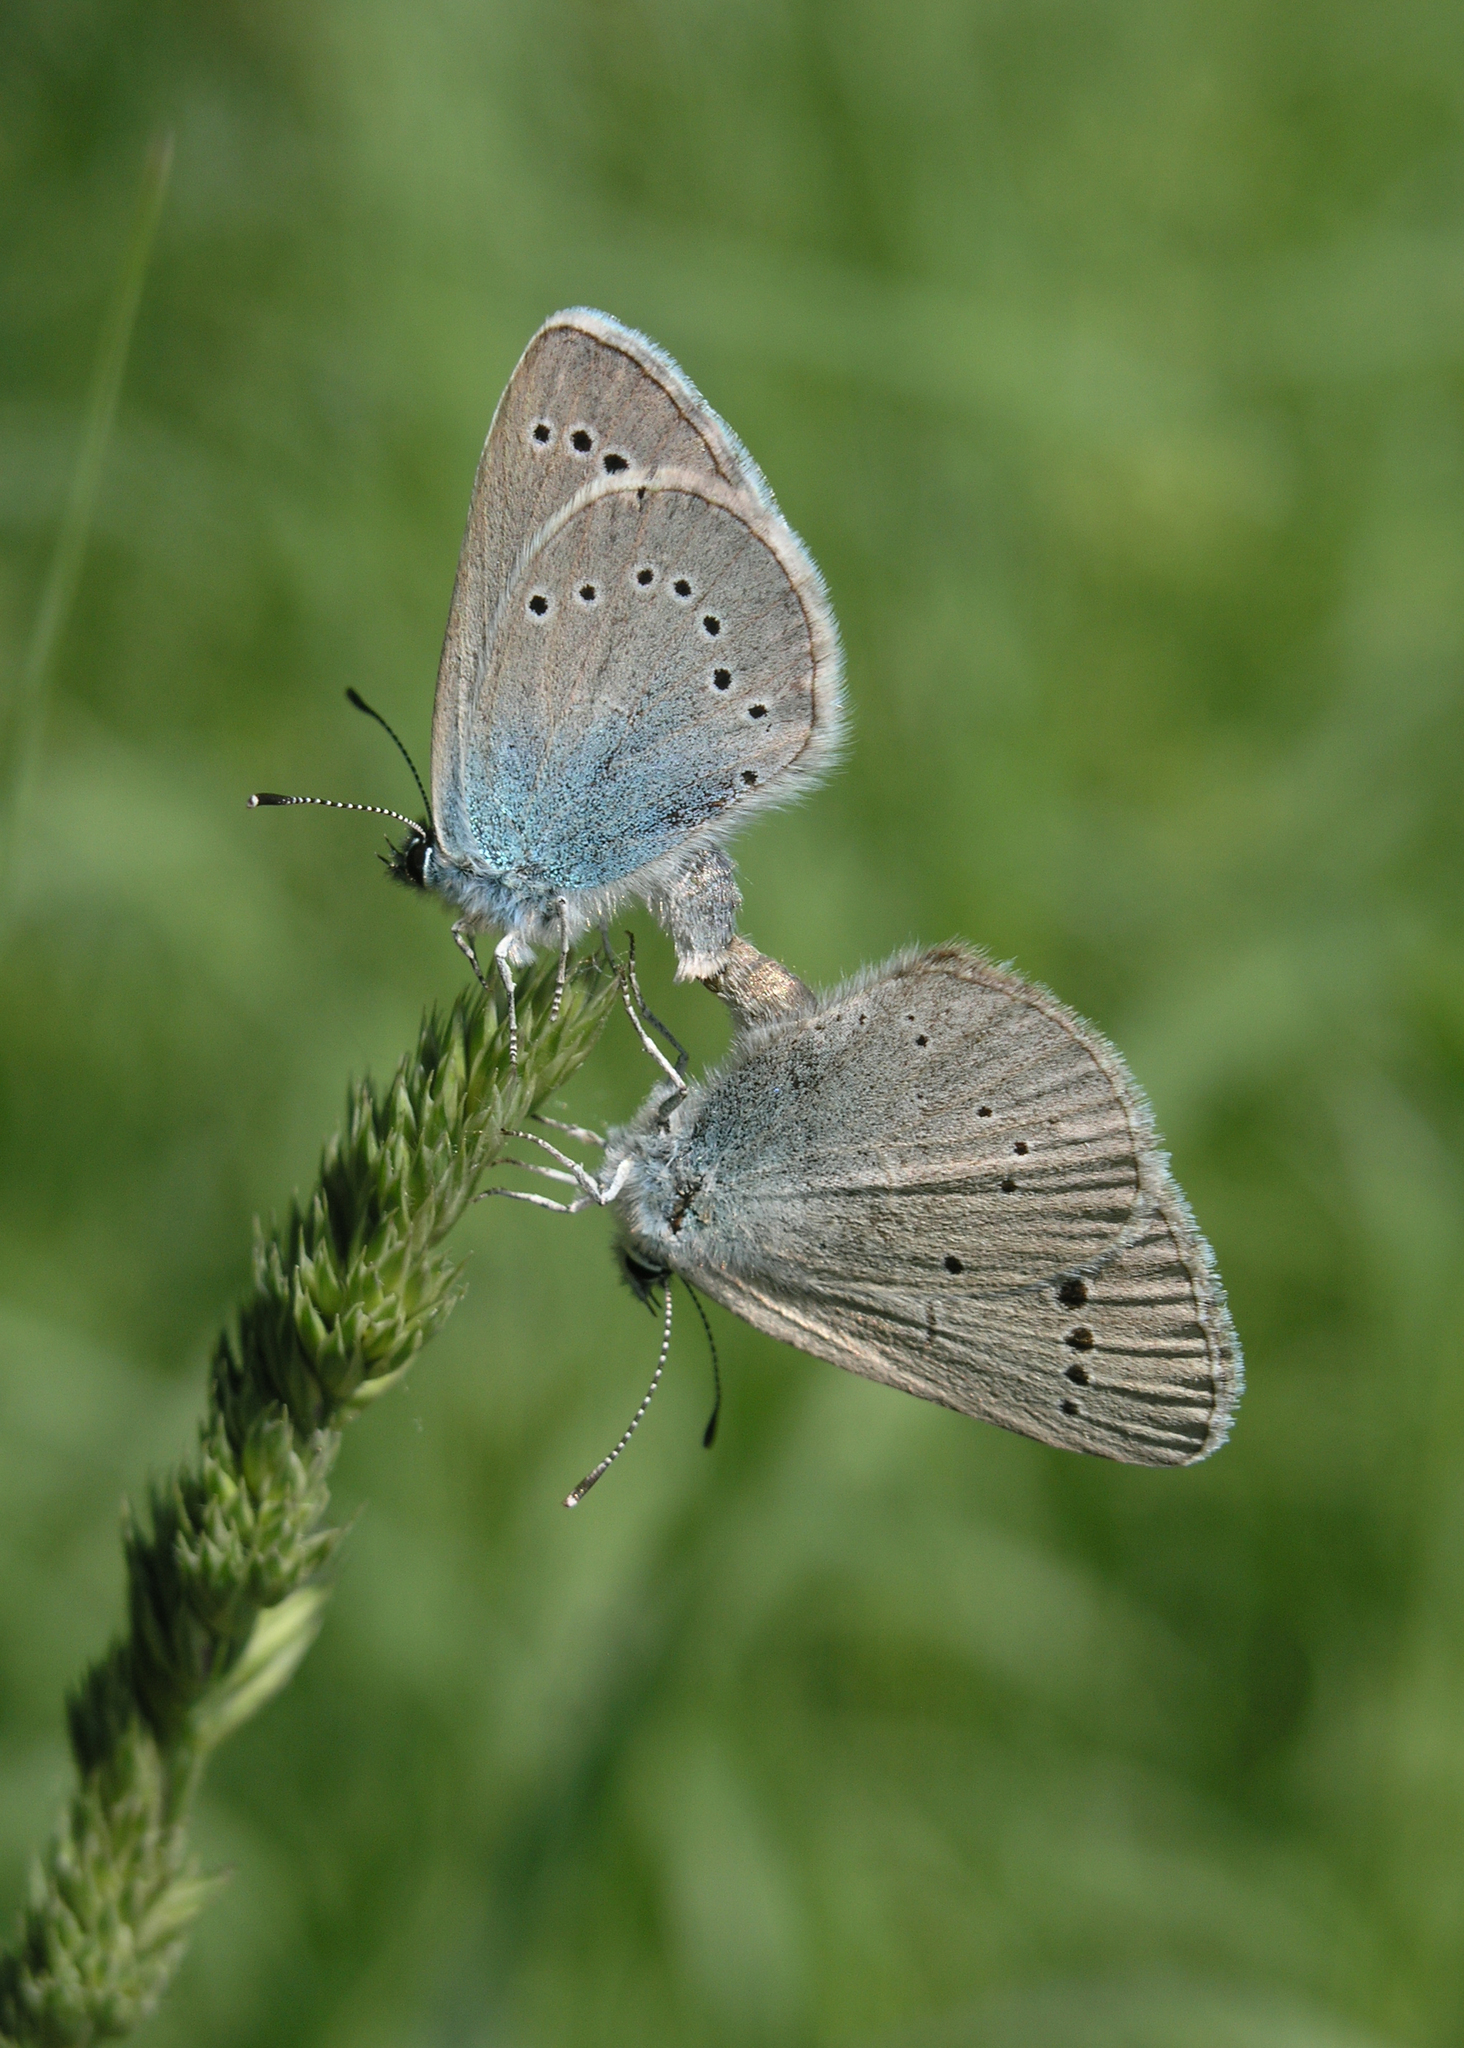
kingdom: Animalia
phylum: Arthropoda
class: Insecta
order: Lepidoptera
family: Lycaenidae
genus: Glaucopsyche
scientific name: Glaucopsyche lycormas
